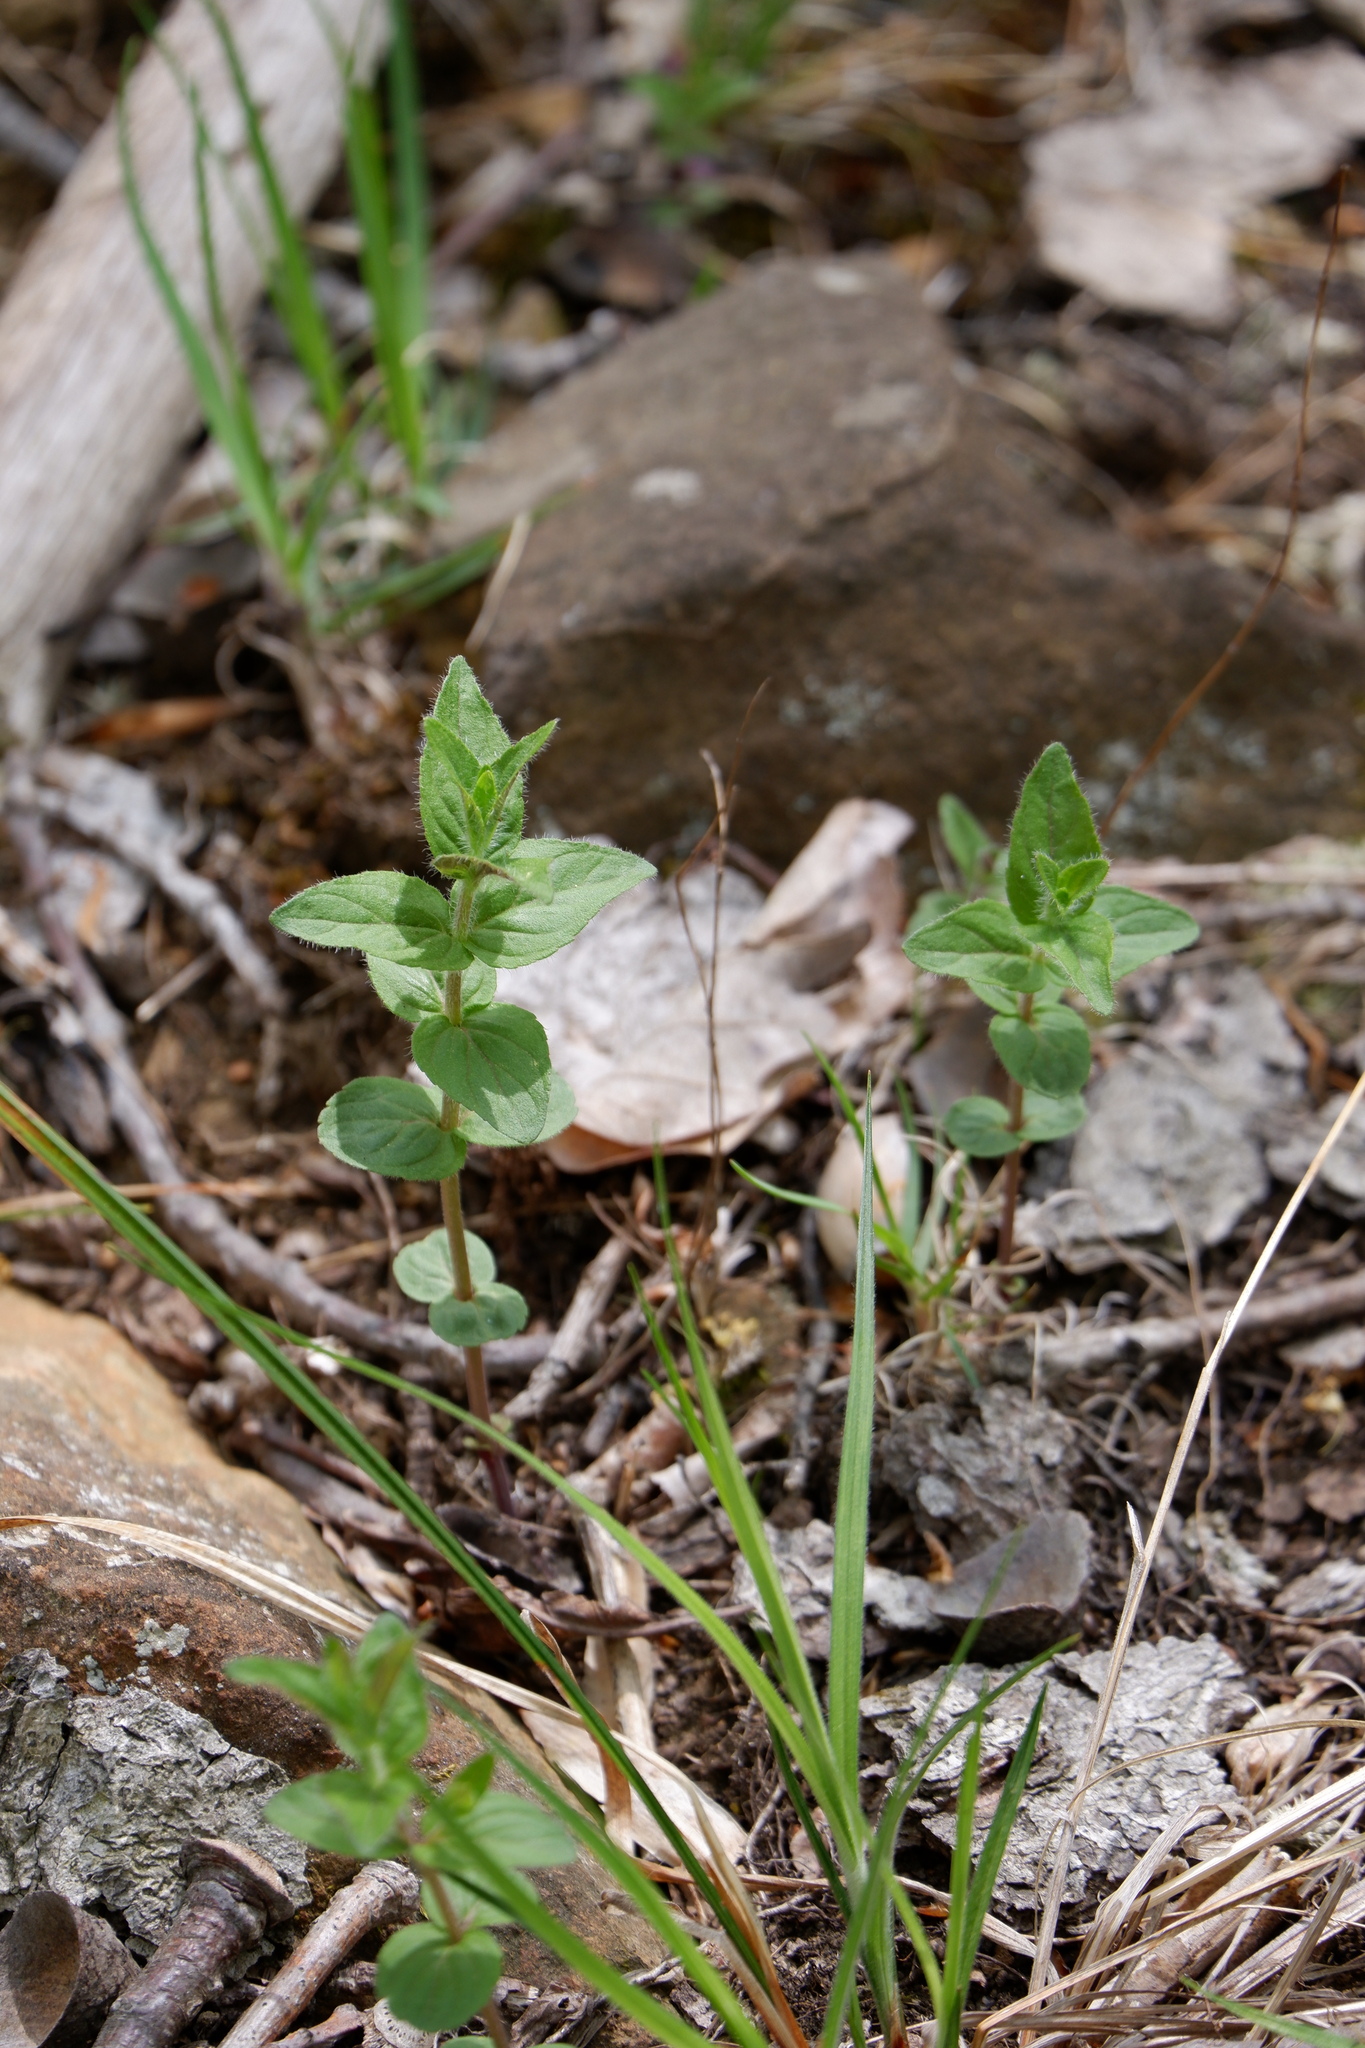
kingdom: Plantae
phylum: Tracheophyta
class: Magnoliopsida
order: Lamiales
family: Lamiaceae
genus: Cunila
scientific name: Cunila origanoides
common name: American dittany
